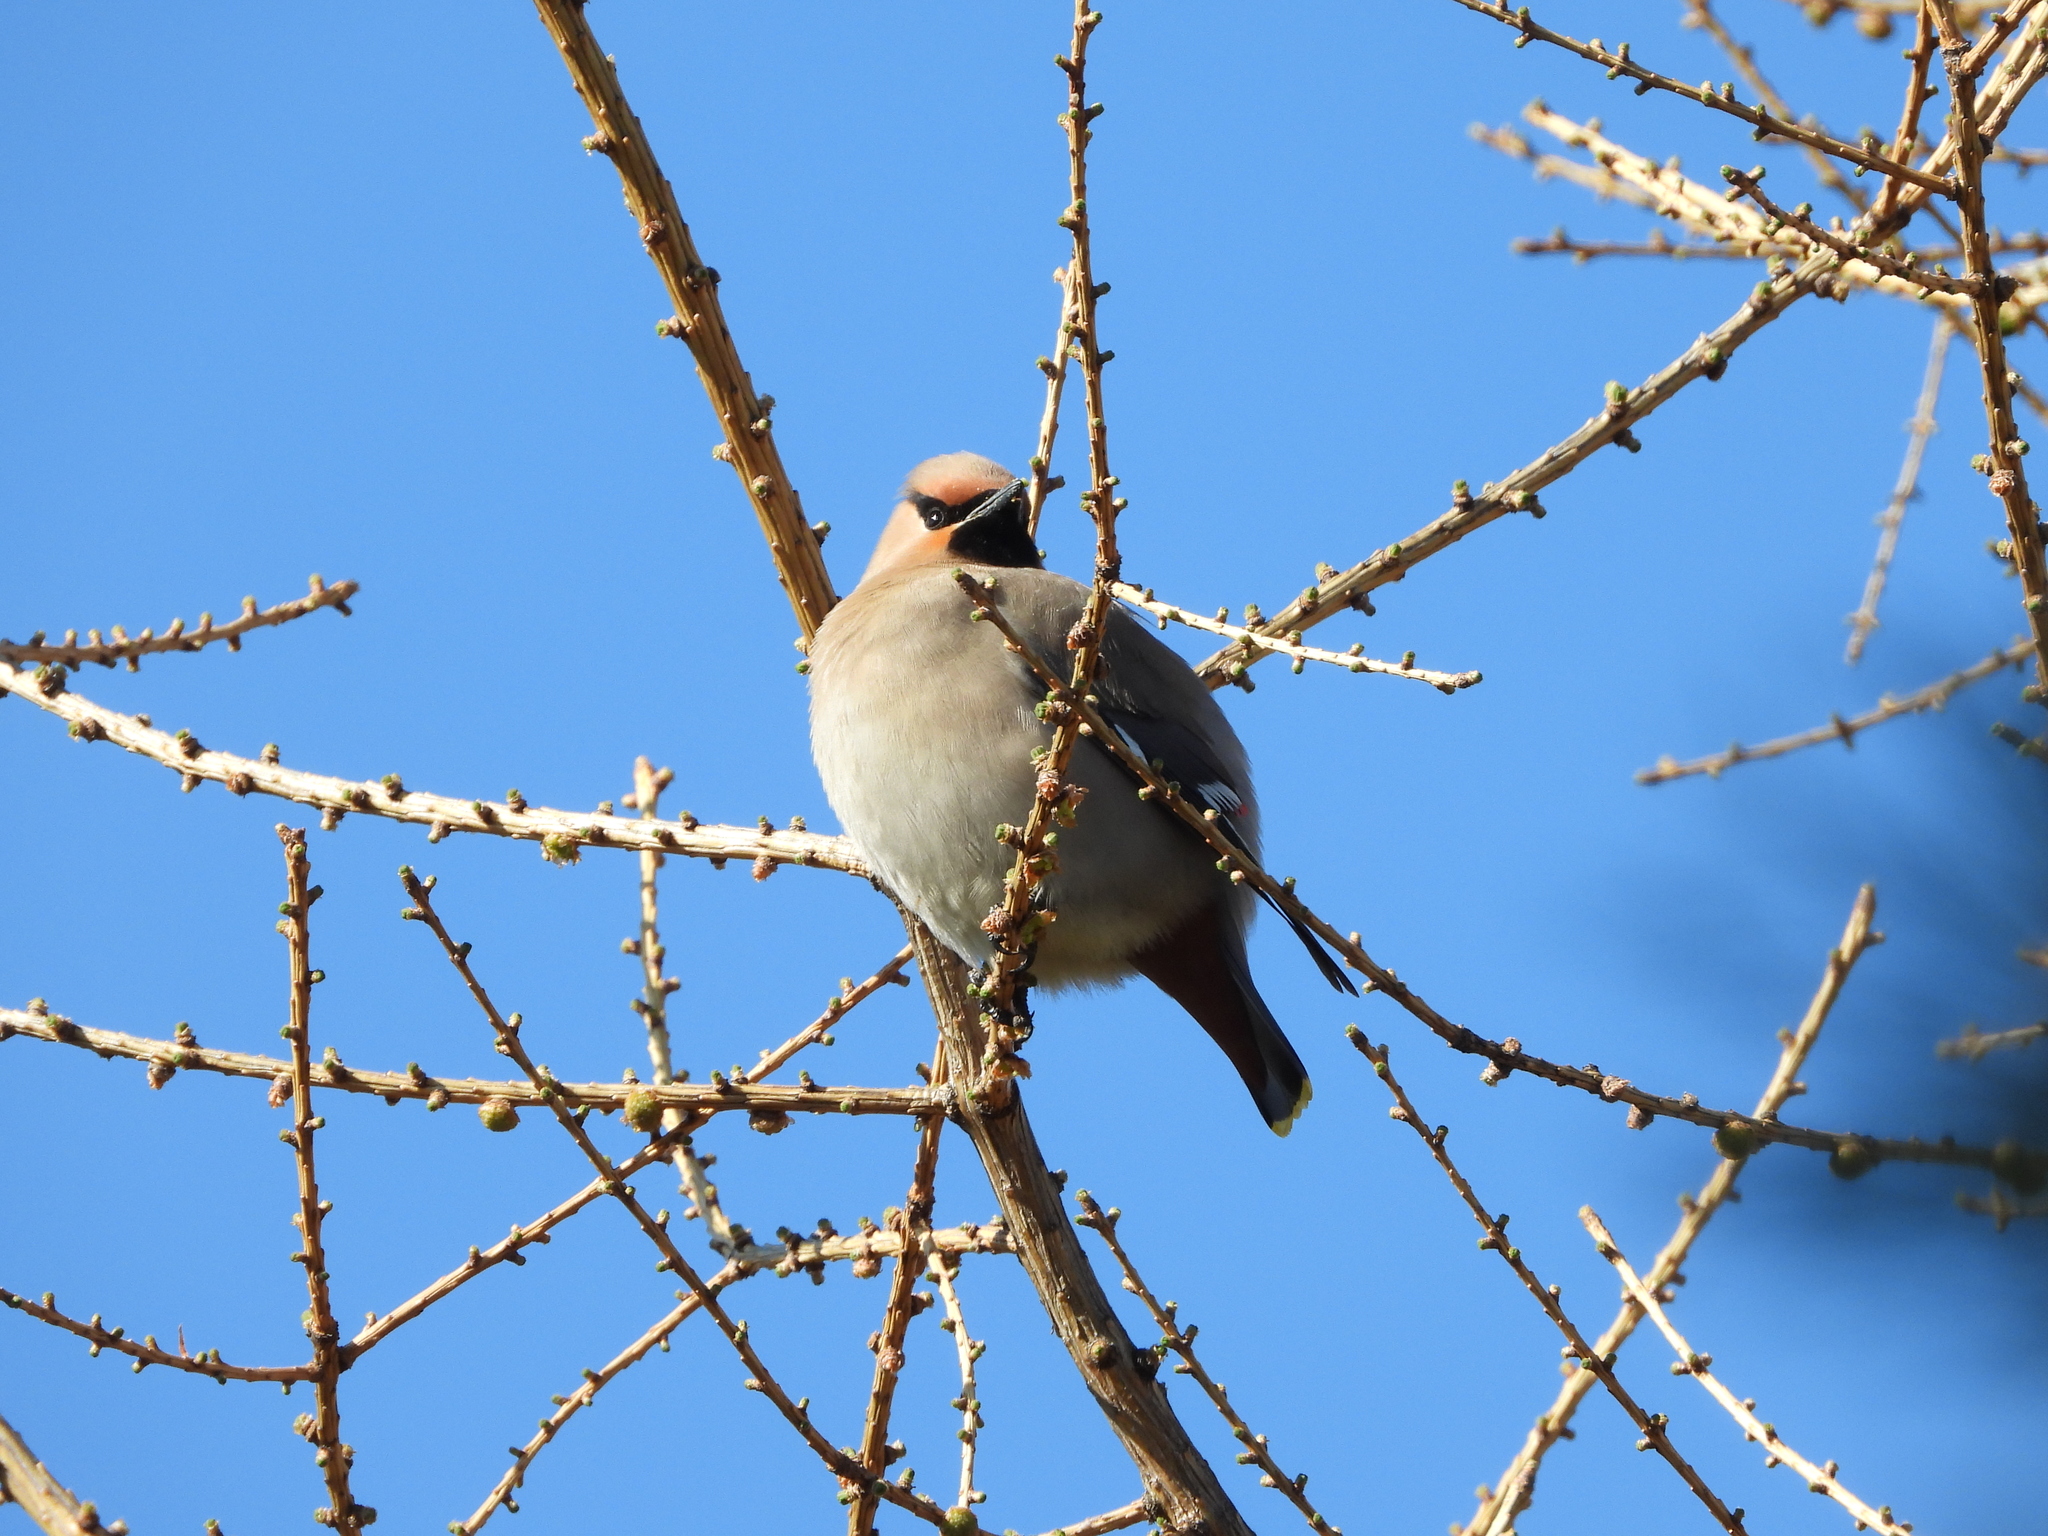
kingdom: Animalia
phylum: Chordata
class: Aves
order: Passeriformes
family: Bombycillidae
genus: Bombycilla
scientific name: Bombycilla garrulus
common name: Bohemian waxwing
